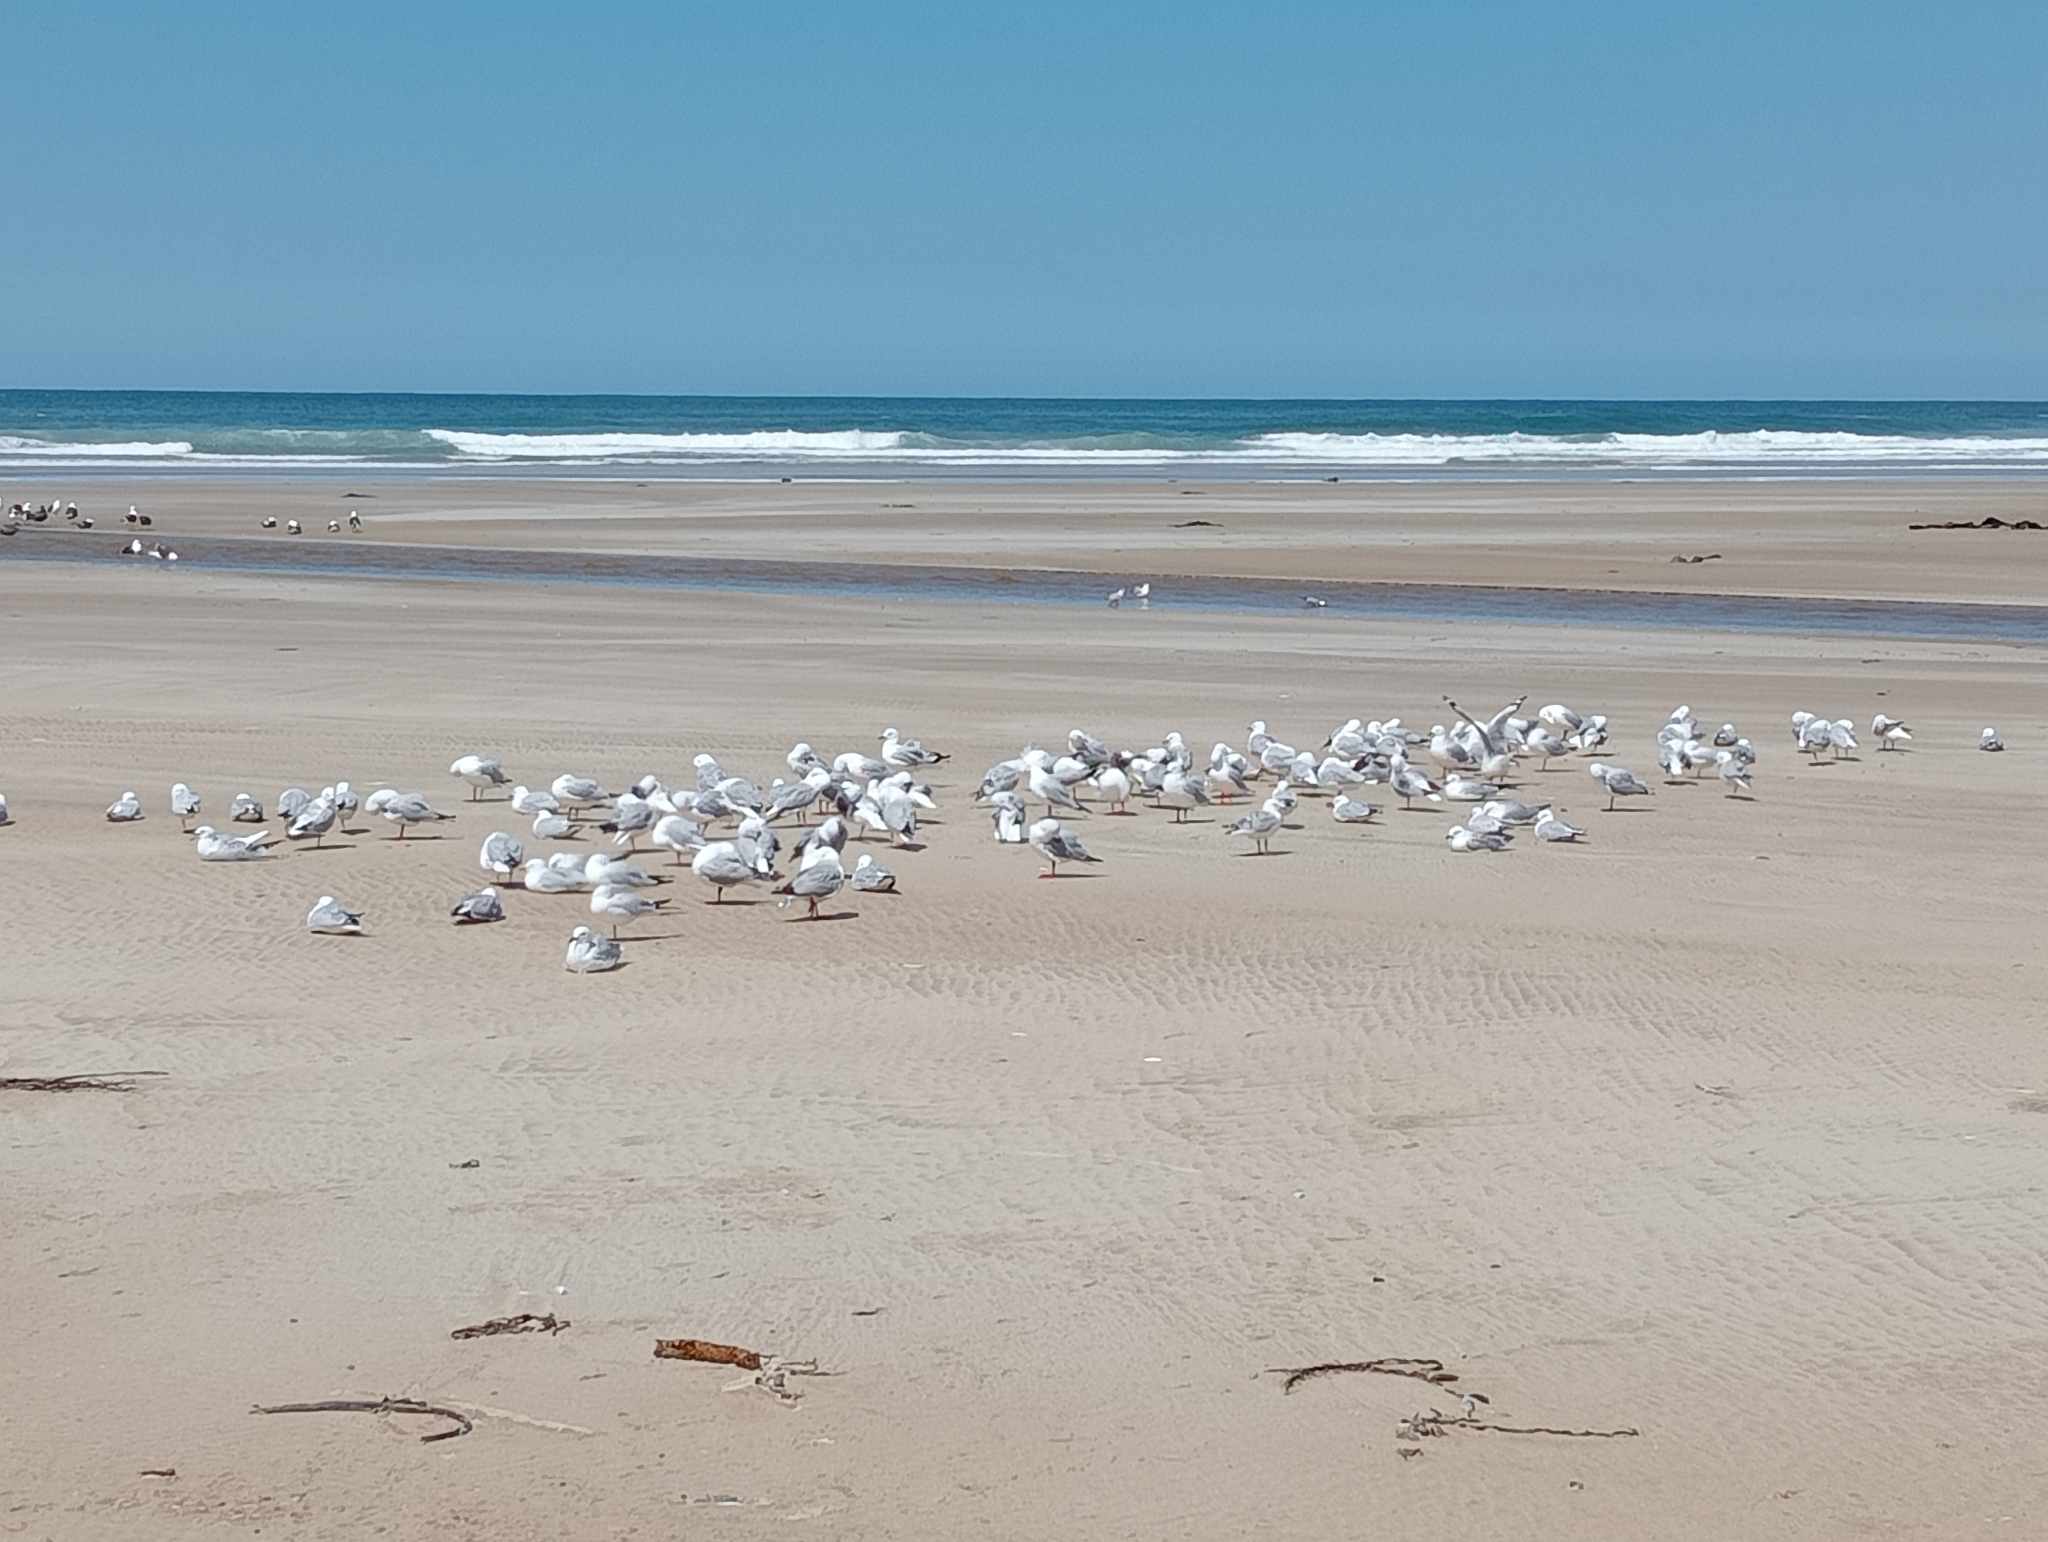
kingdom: Animalia
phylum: Chordata
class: Aves
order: Charadriiformes
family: Laridae
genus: Chroicocephalus
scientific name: Chroicocephalus novaehollandiae
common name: Silver gull
